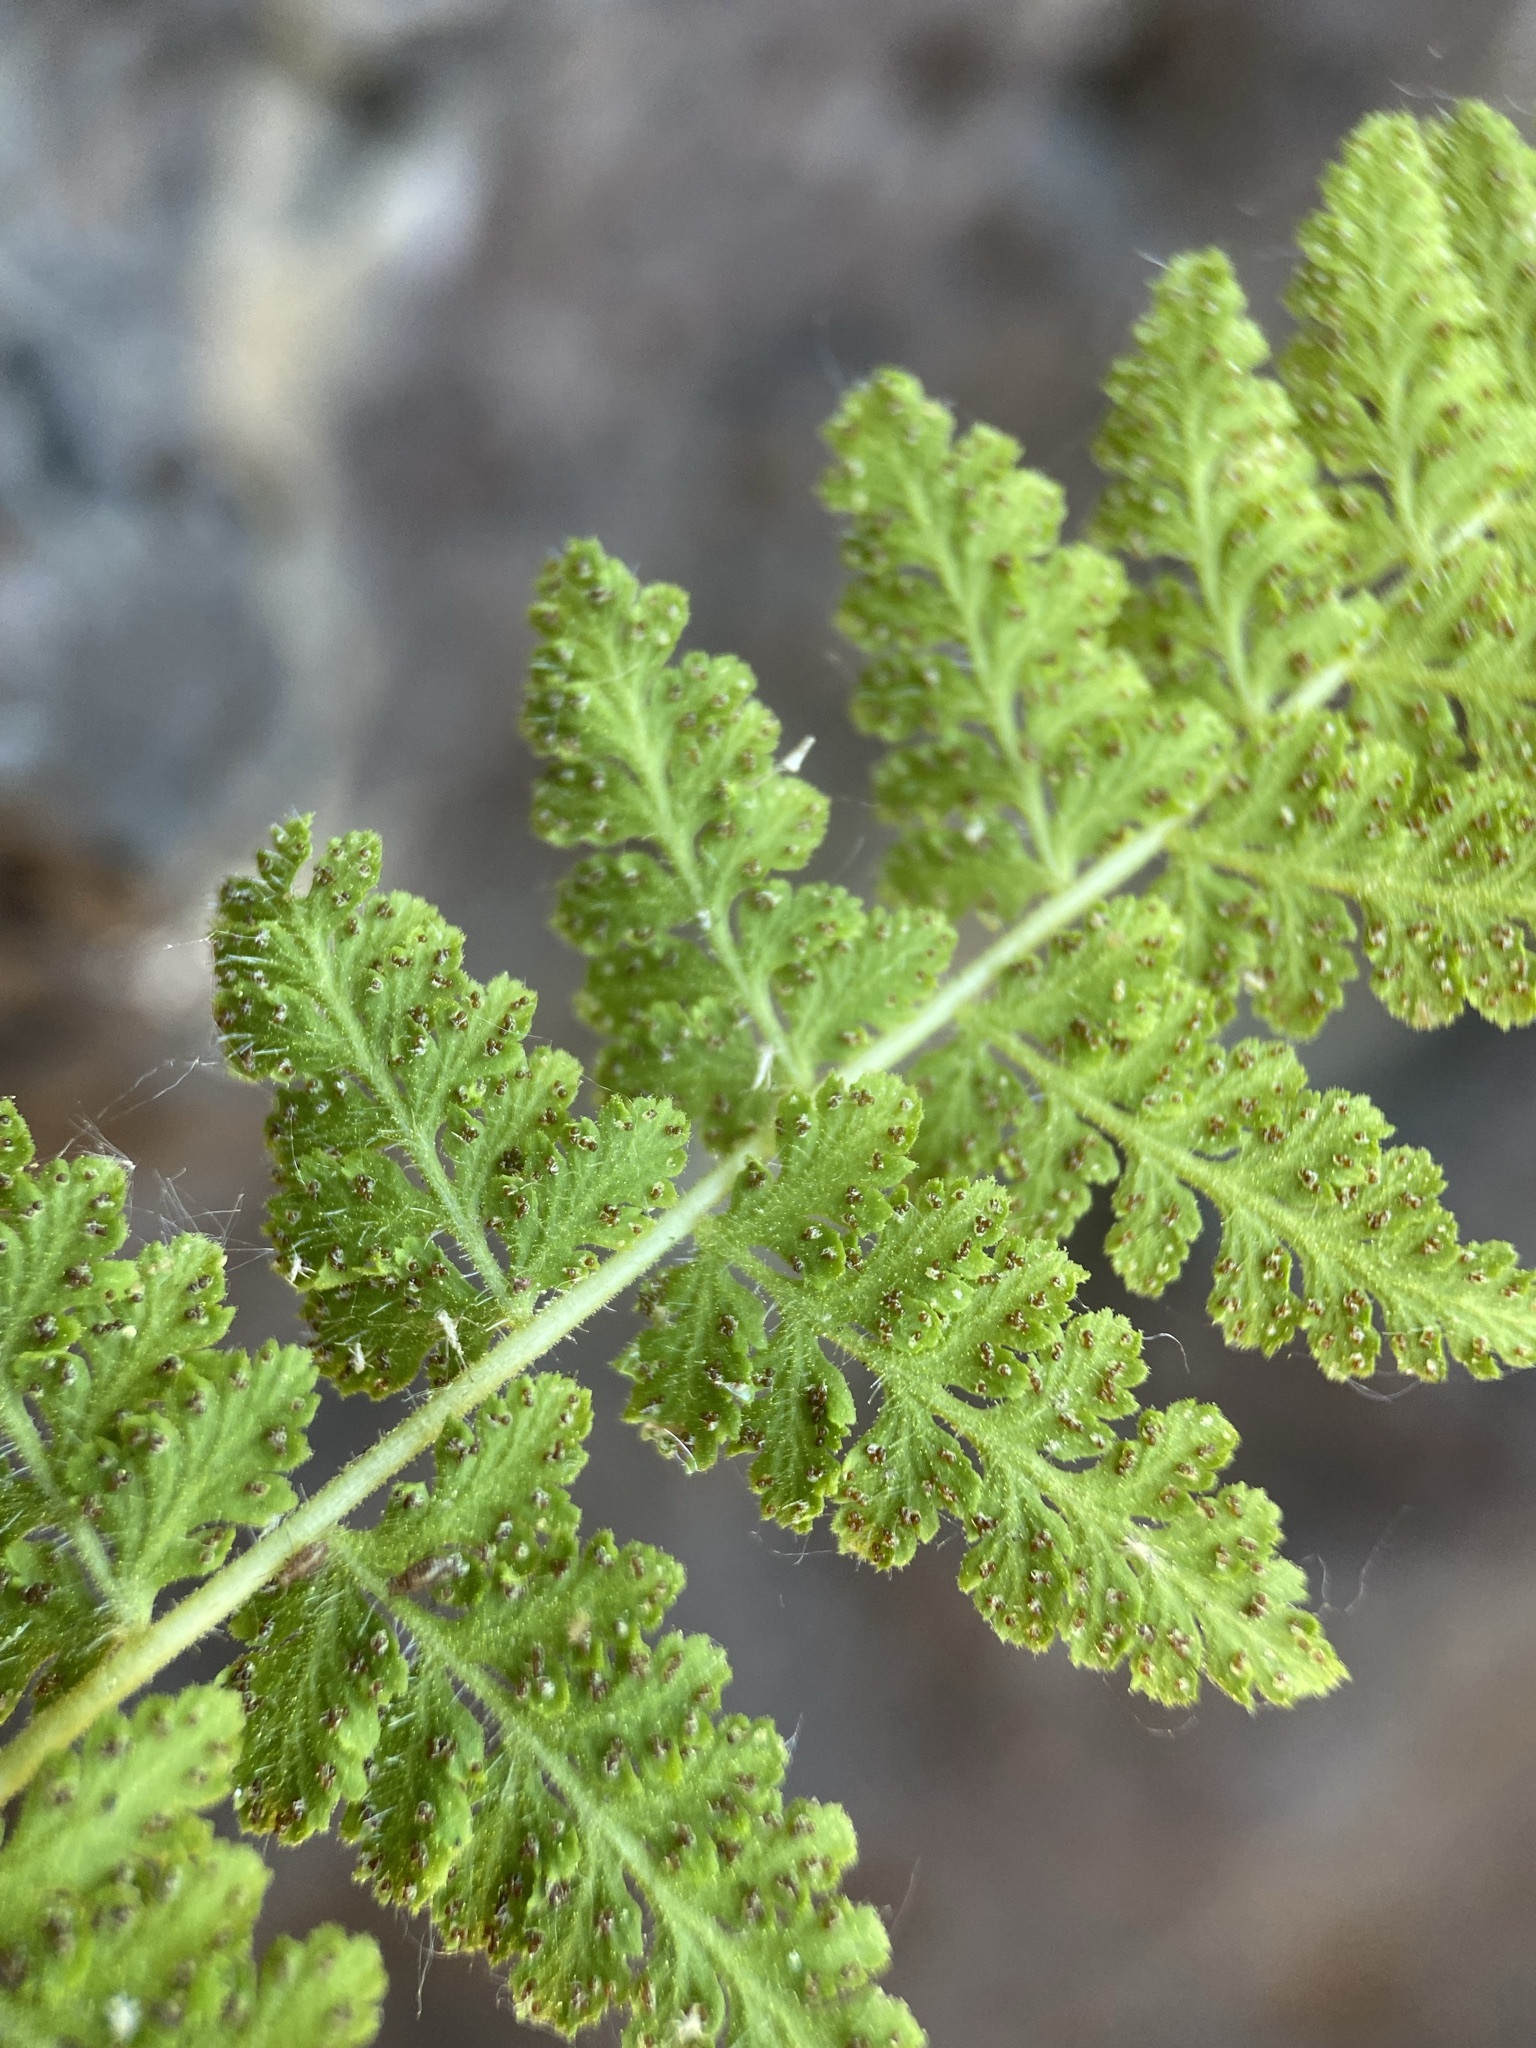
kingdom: Plantae
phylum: Tracheophyta
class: Polypodiopsida
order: Polypodiales
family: Woodsiaceae
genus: Physematium
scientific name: Physematium scopulinum
